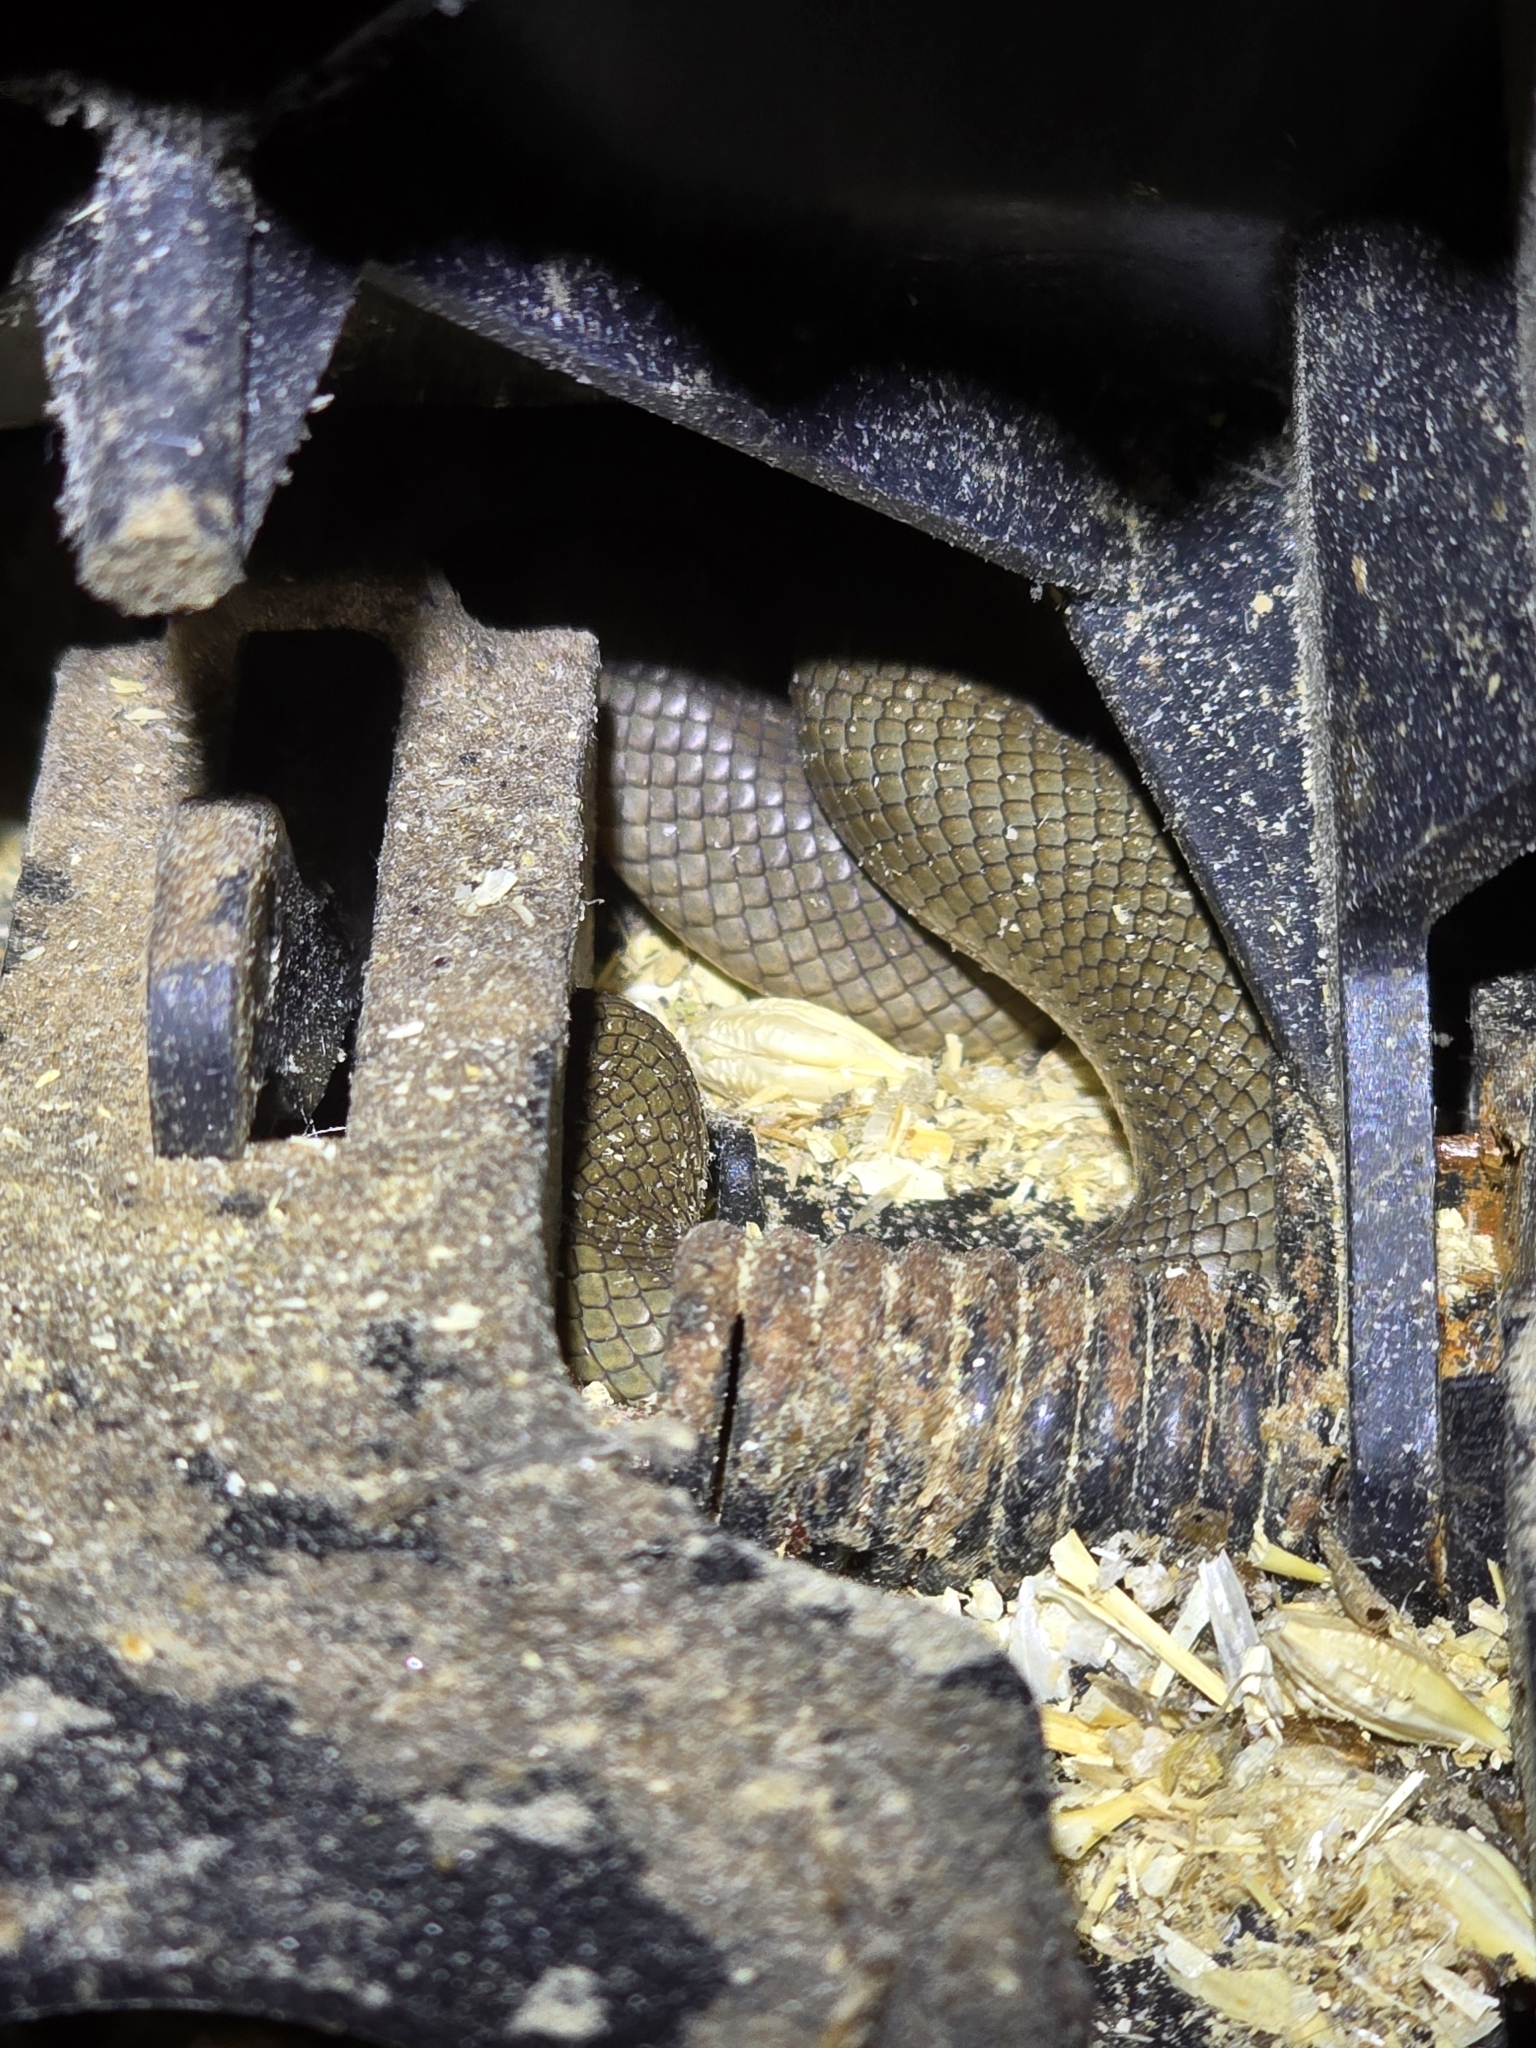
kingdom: Animalia
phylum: Chordata
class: Squamata
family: Elapidae
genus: Pseudonaja
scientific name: Pseudonaja textilis
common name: Eastern brown snake
